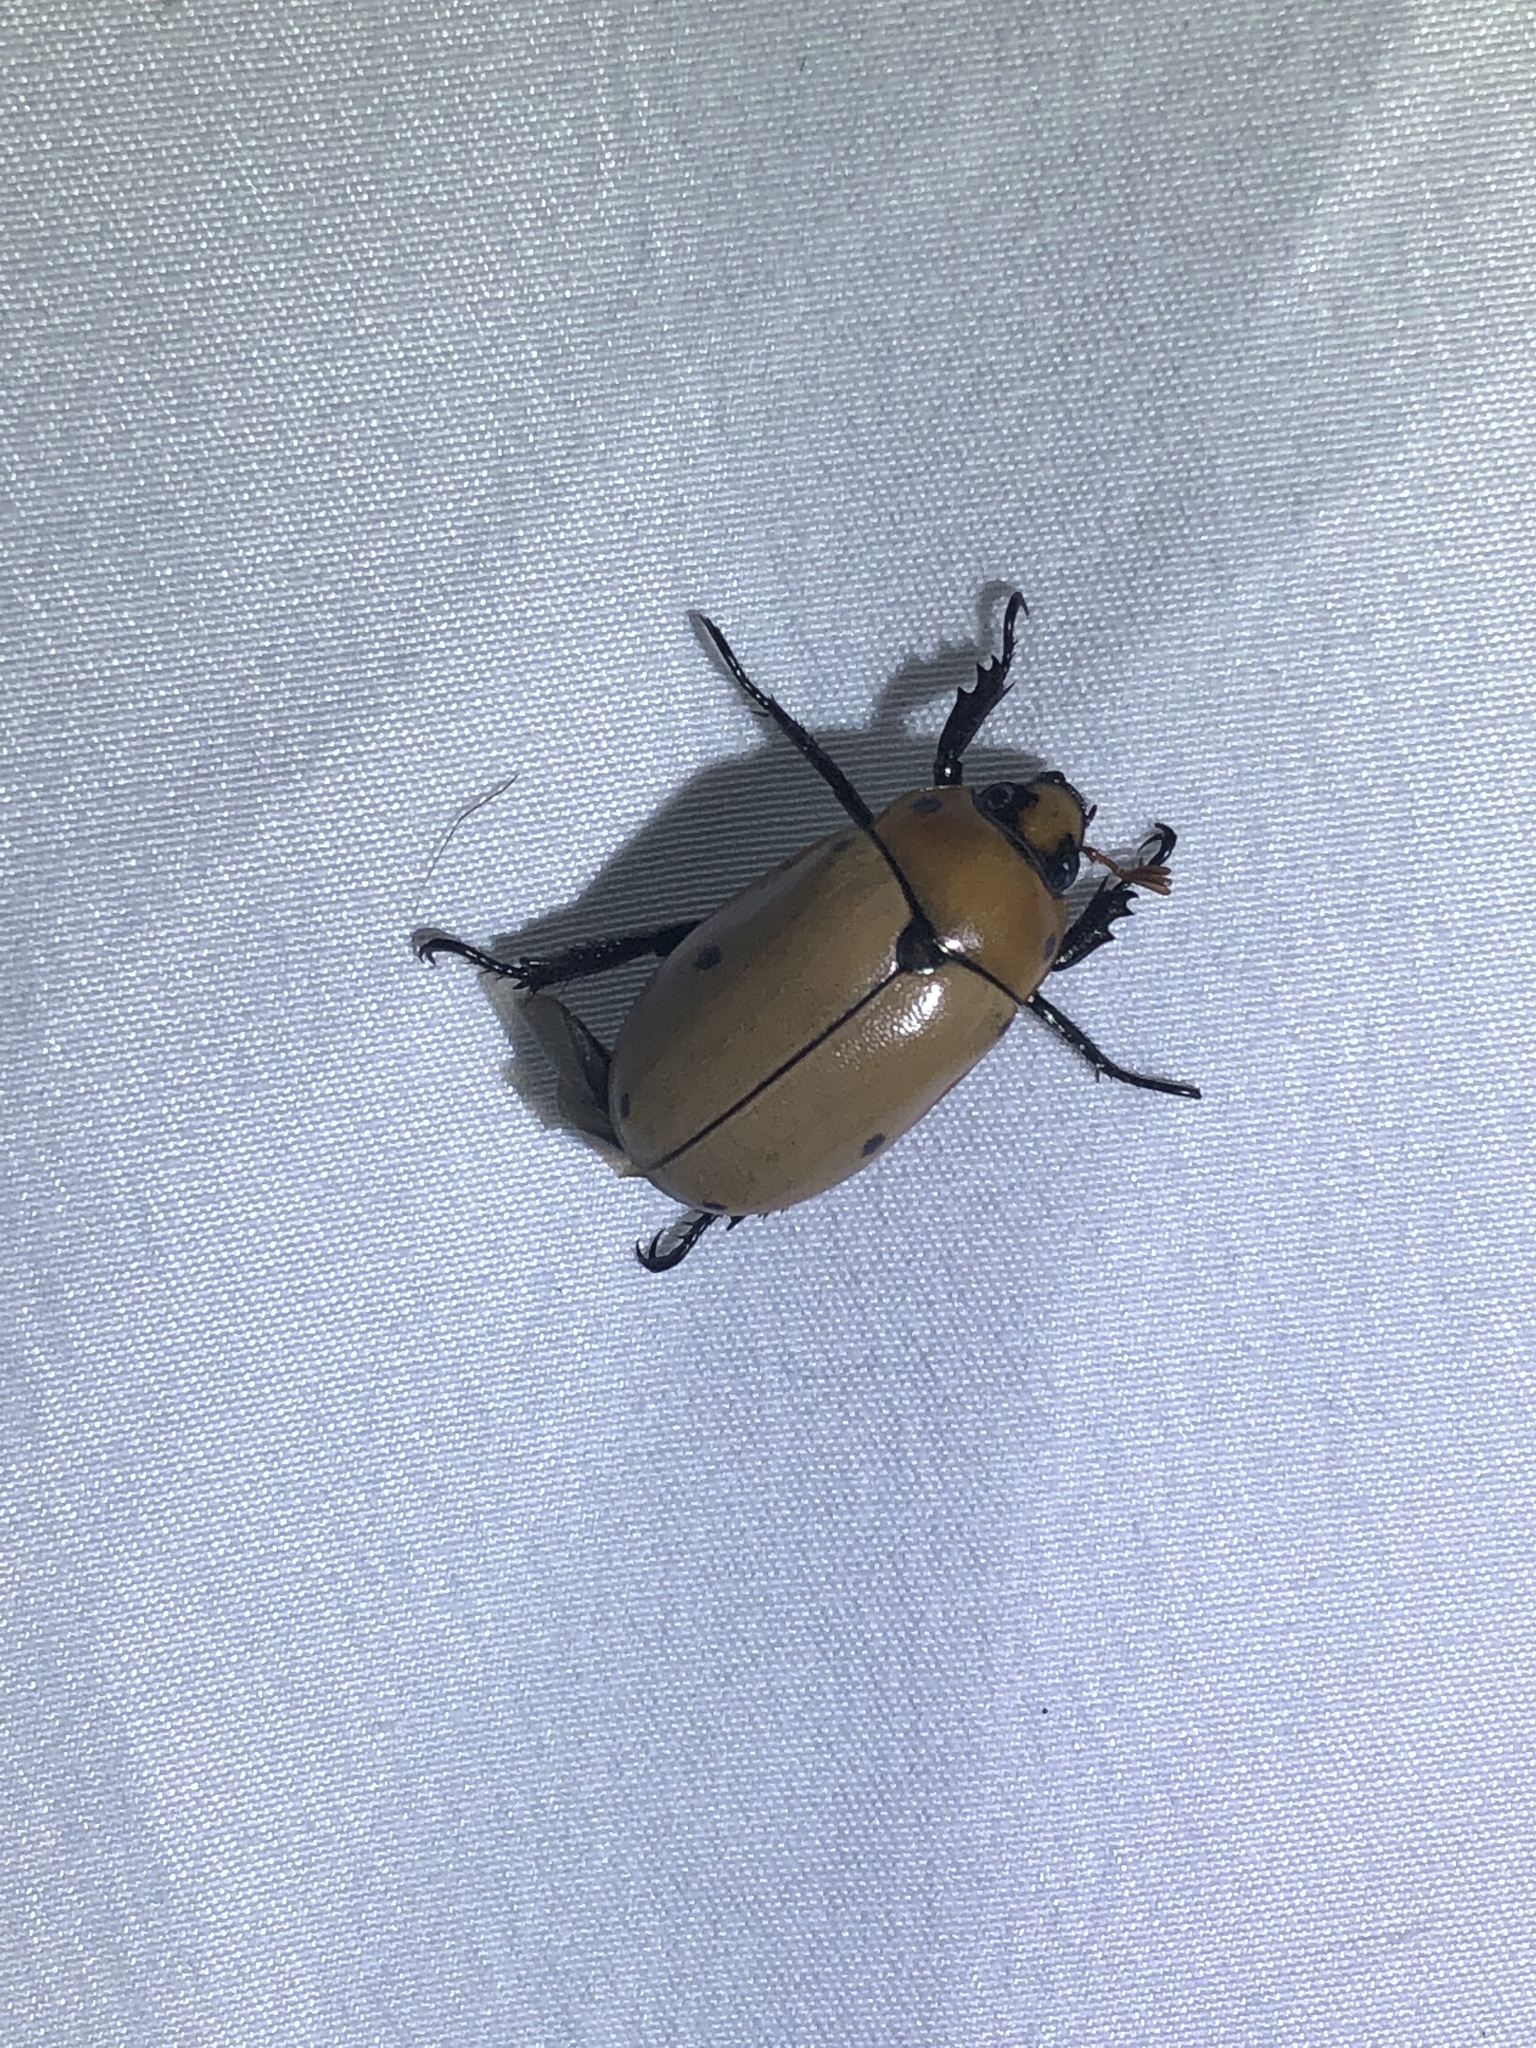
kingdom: Animalia
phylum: Arthropoda
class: Insecta
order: Coleoptera
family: Scarabaeidae
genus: Pelidnota
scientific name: Pelidnota punctata
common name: Grapevine beetle
